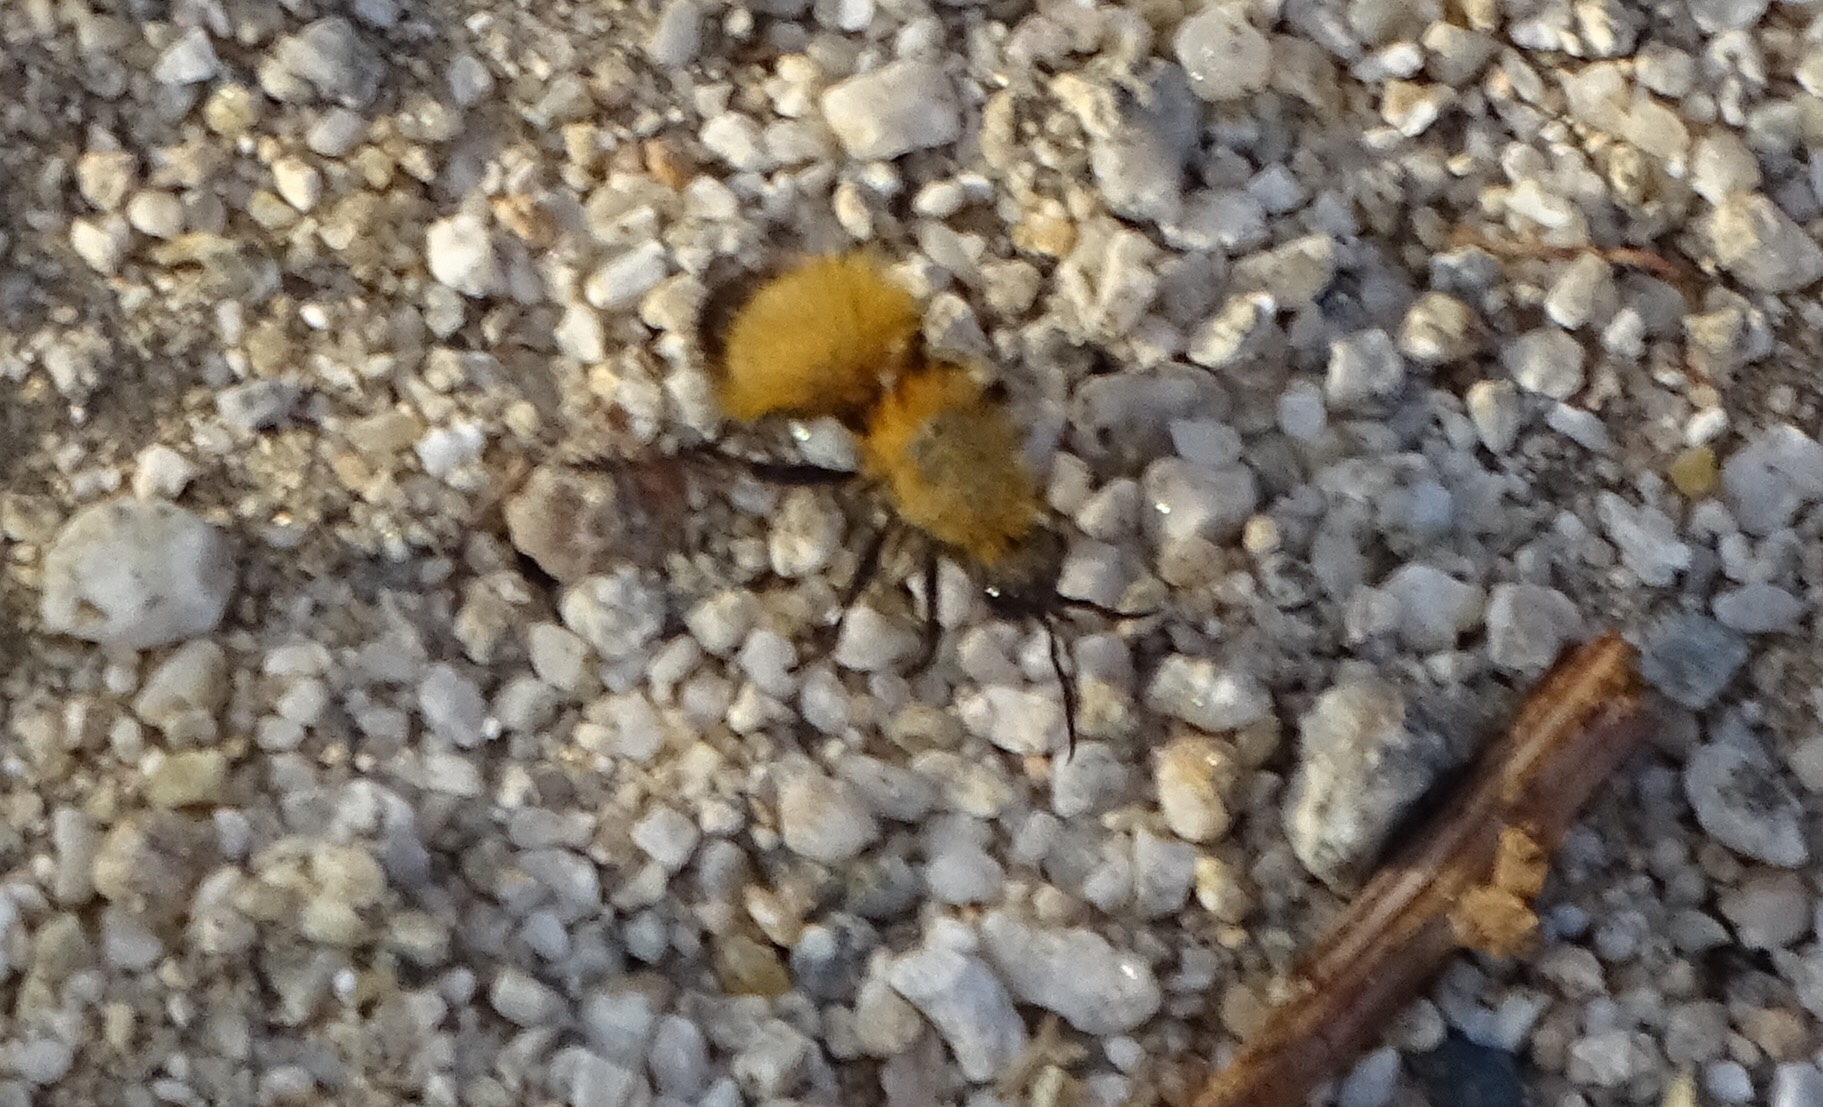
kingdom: Animalia
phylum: Arthropoda
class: Insecta
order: Hymenoptera
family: Mutillidae
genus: Dasymutilla
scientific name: Dasymutilla arenivaga
